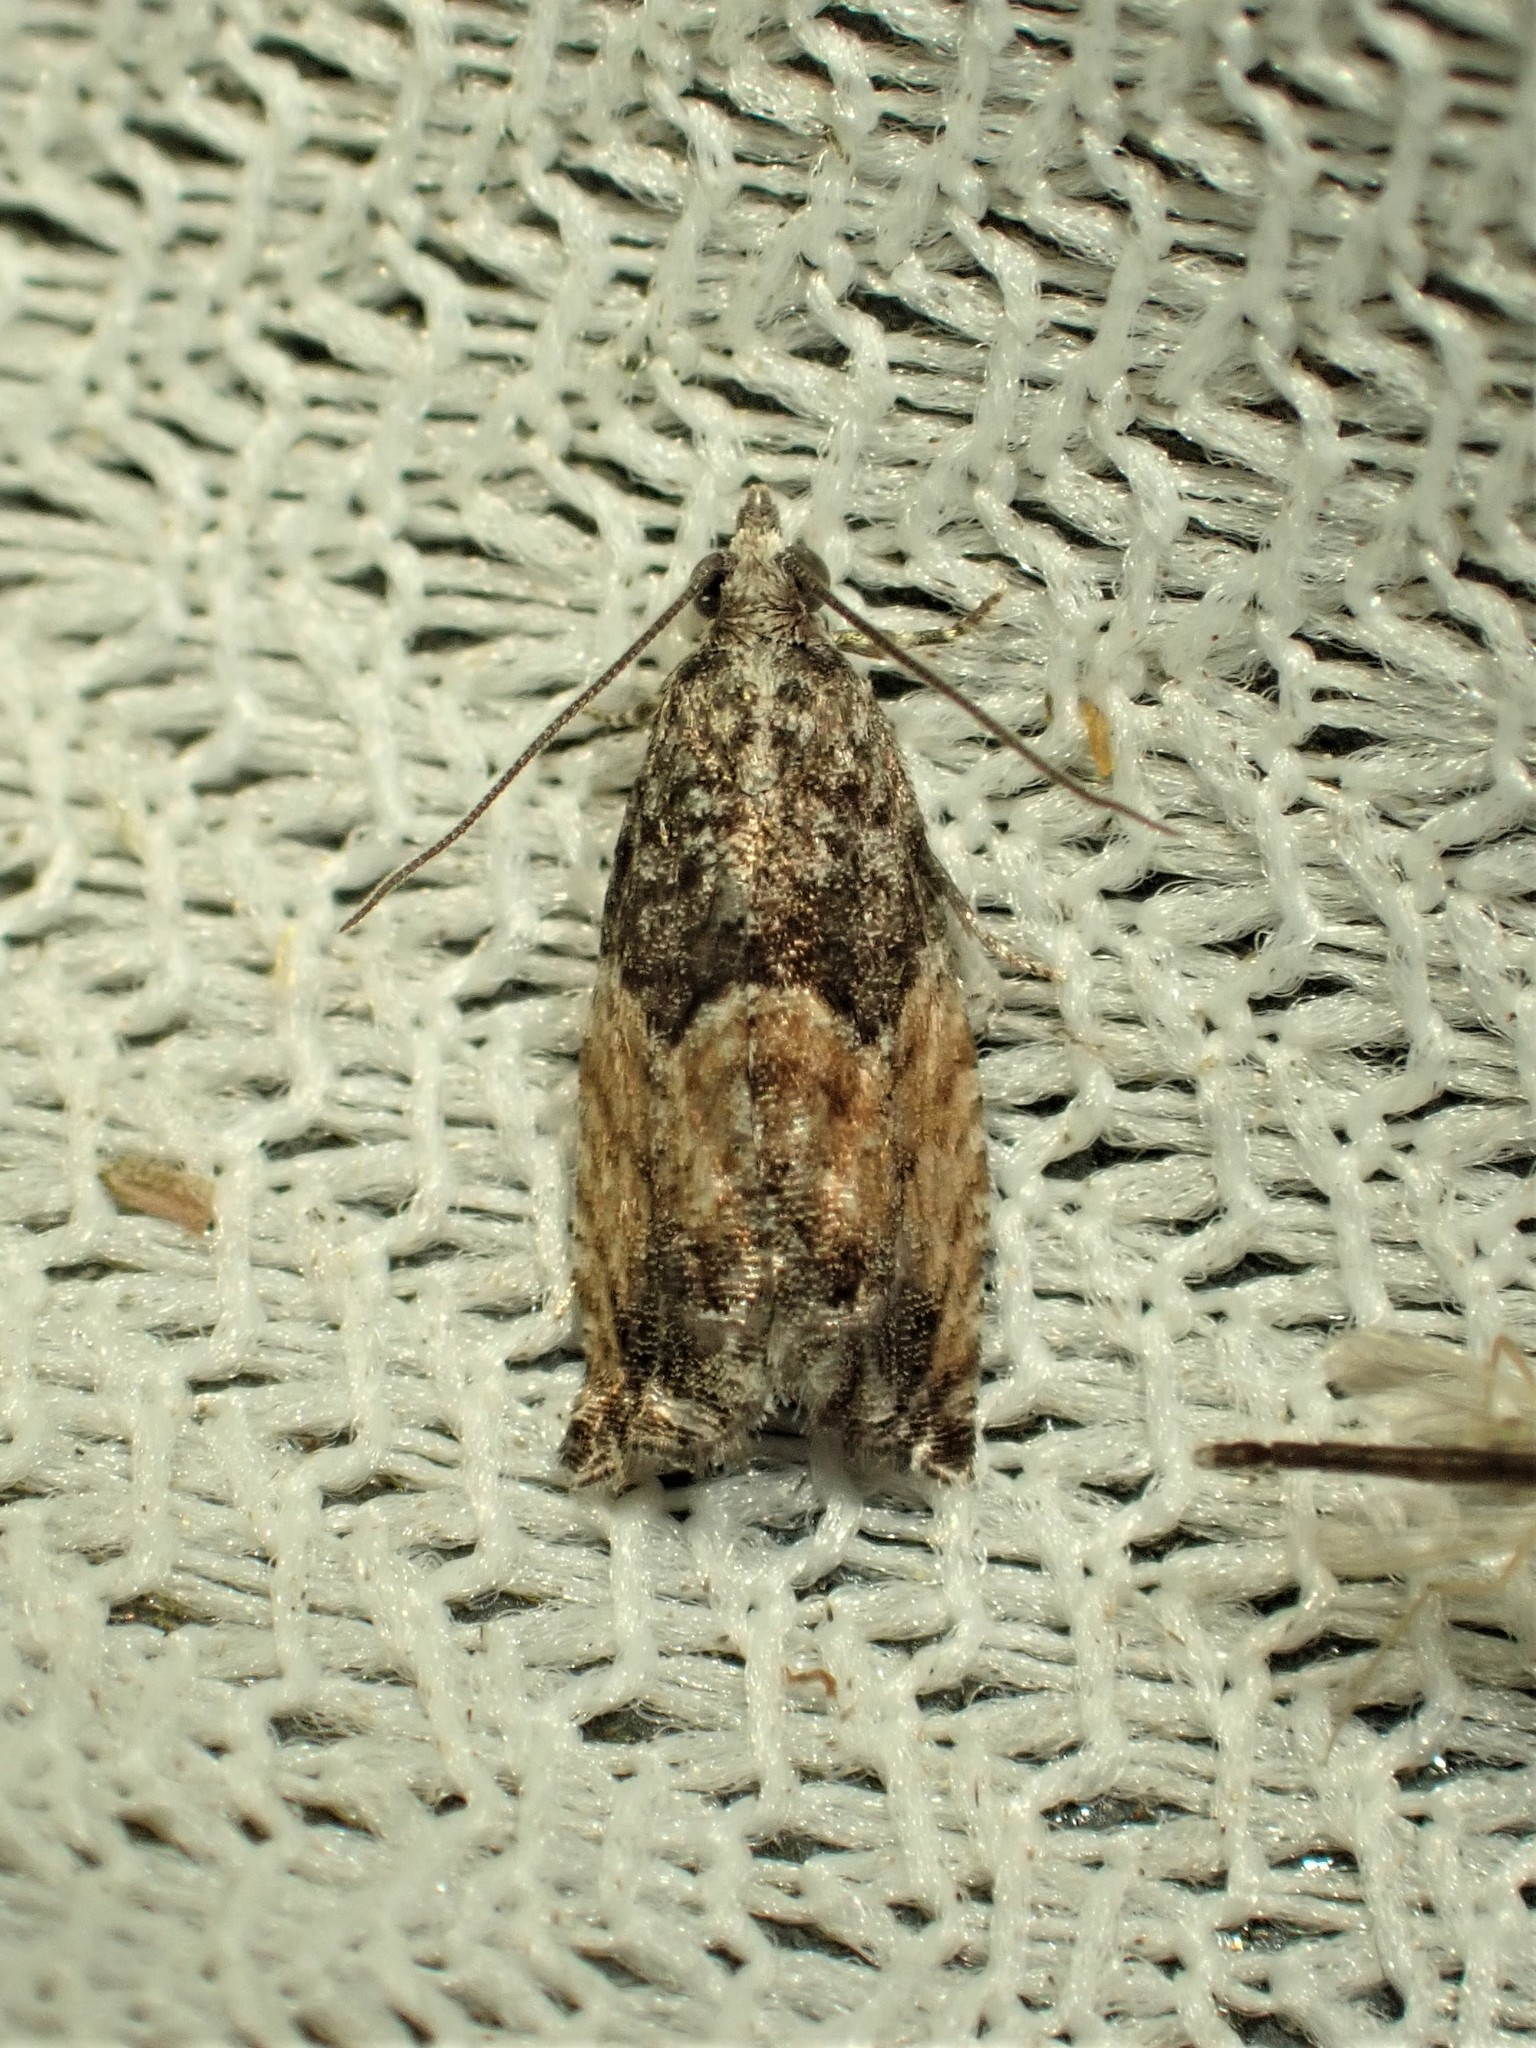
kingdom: Animalia
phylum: Arthropoda
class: Insecta
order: Lepidoptera
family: Tortricidae
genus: Epinotia
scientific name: Epinotia nisella
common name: Grey poplar bell
